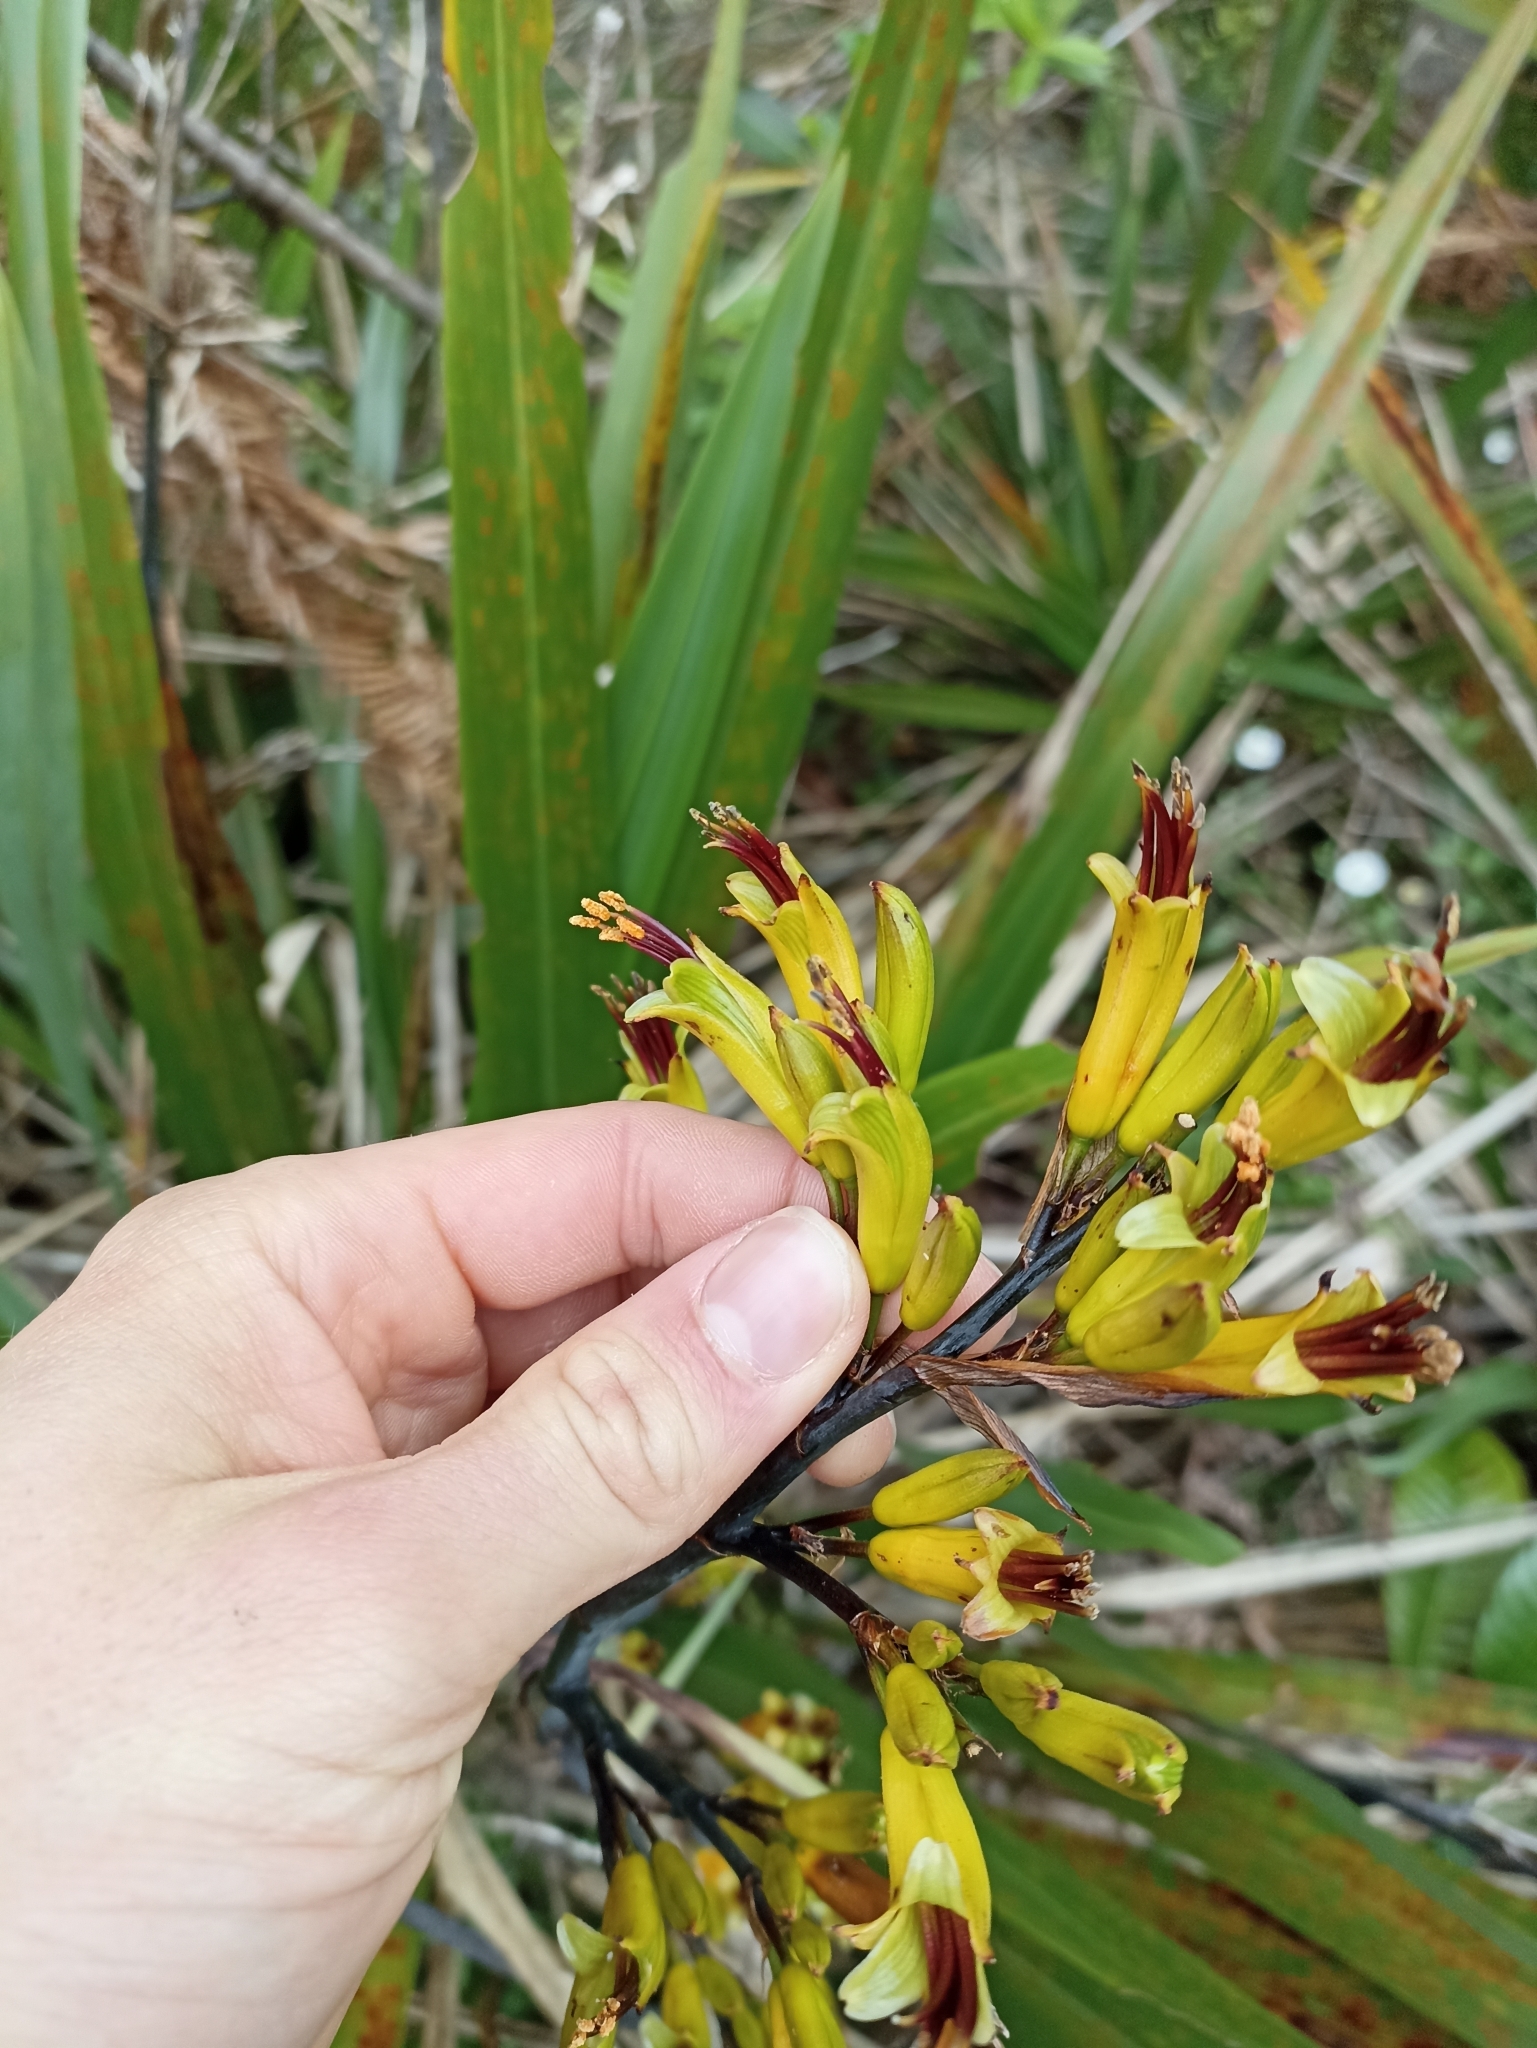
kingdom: Plantae
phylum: Tracheophyta
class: Liliopsida
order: Asparagales
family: Asphodelaceae
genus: Phormium
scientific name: Phormium colensoi
